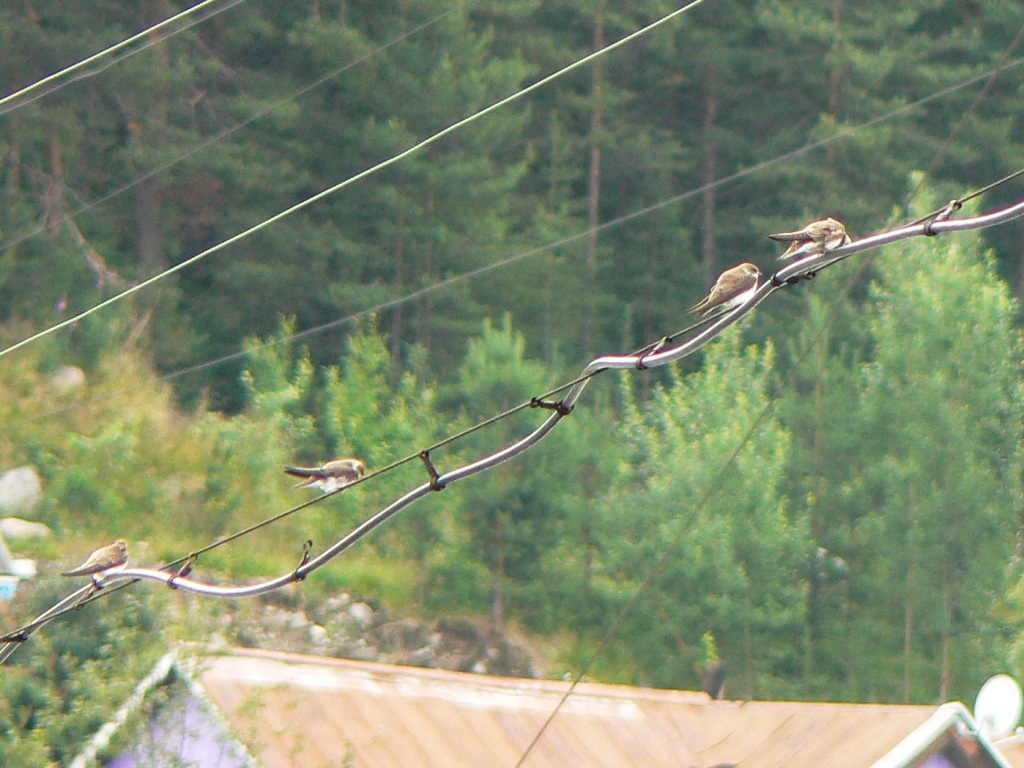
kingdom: Animalia
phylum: Chordata
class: Aves
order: Passeriformes
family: Hirundinidae
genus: Riparia
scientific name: Riparia riparia
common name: Sand martin
